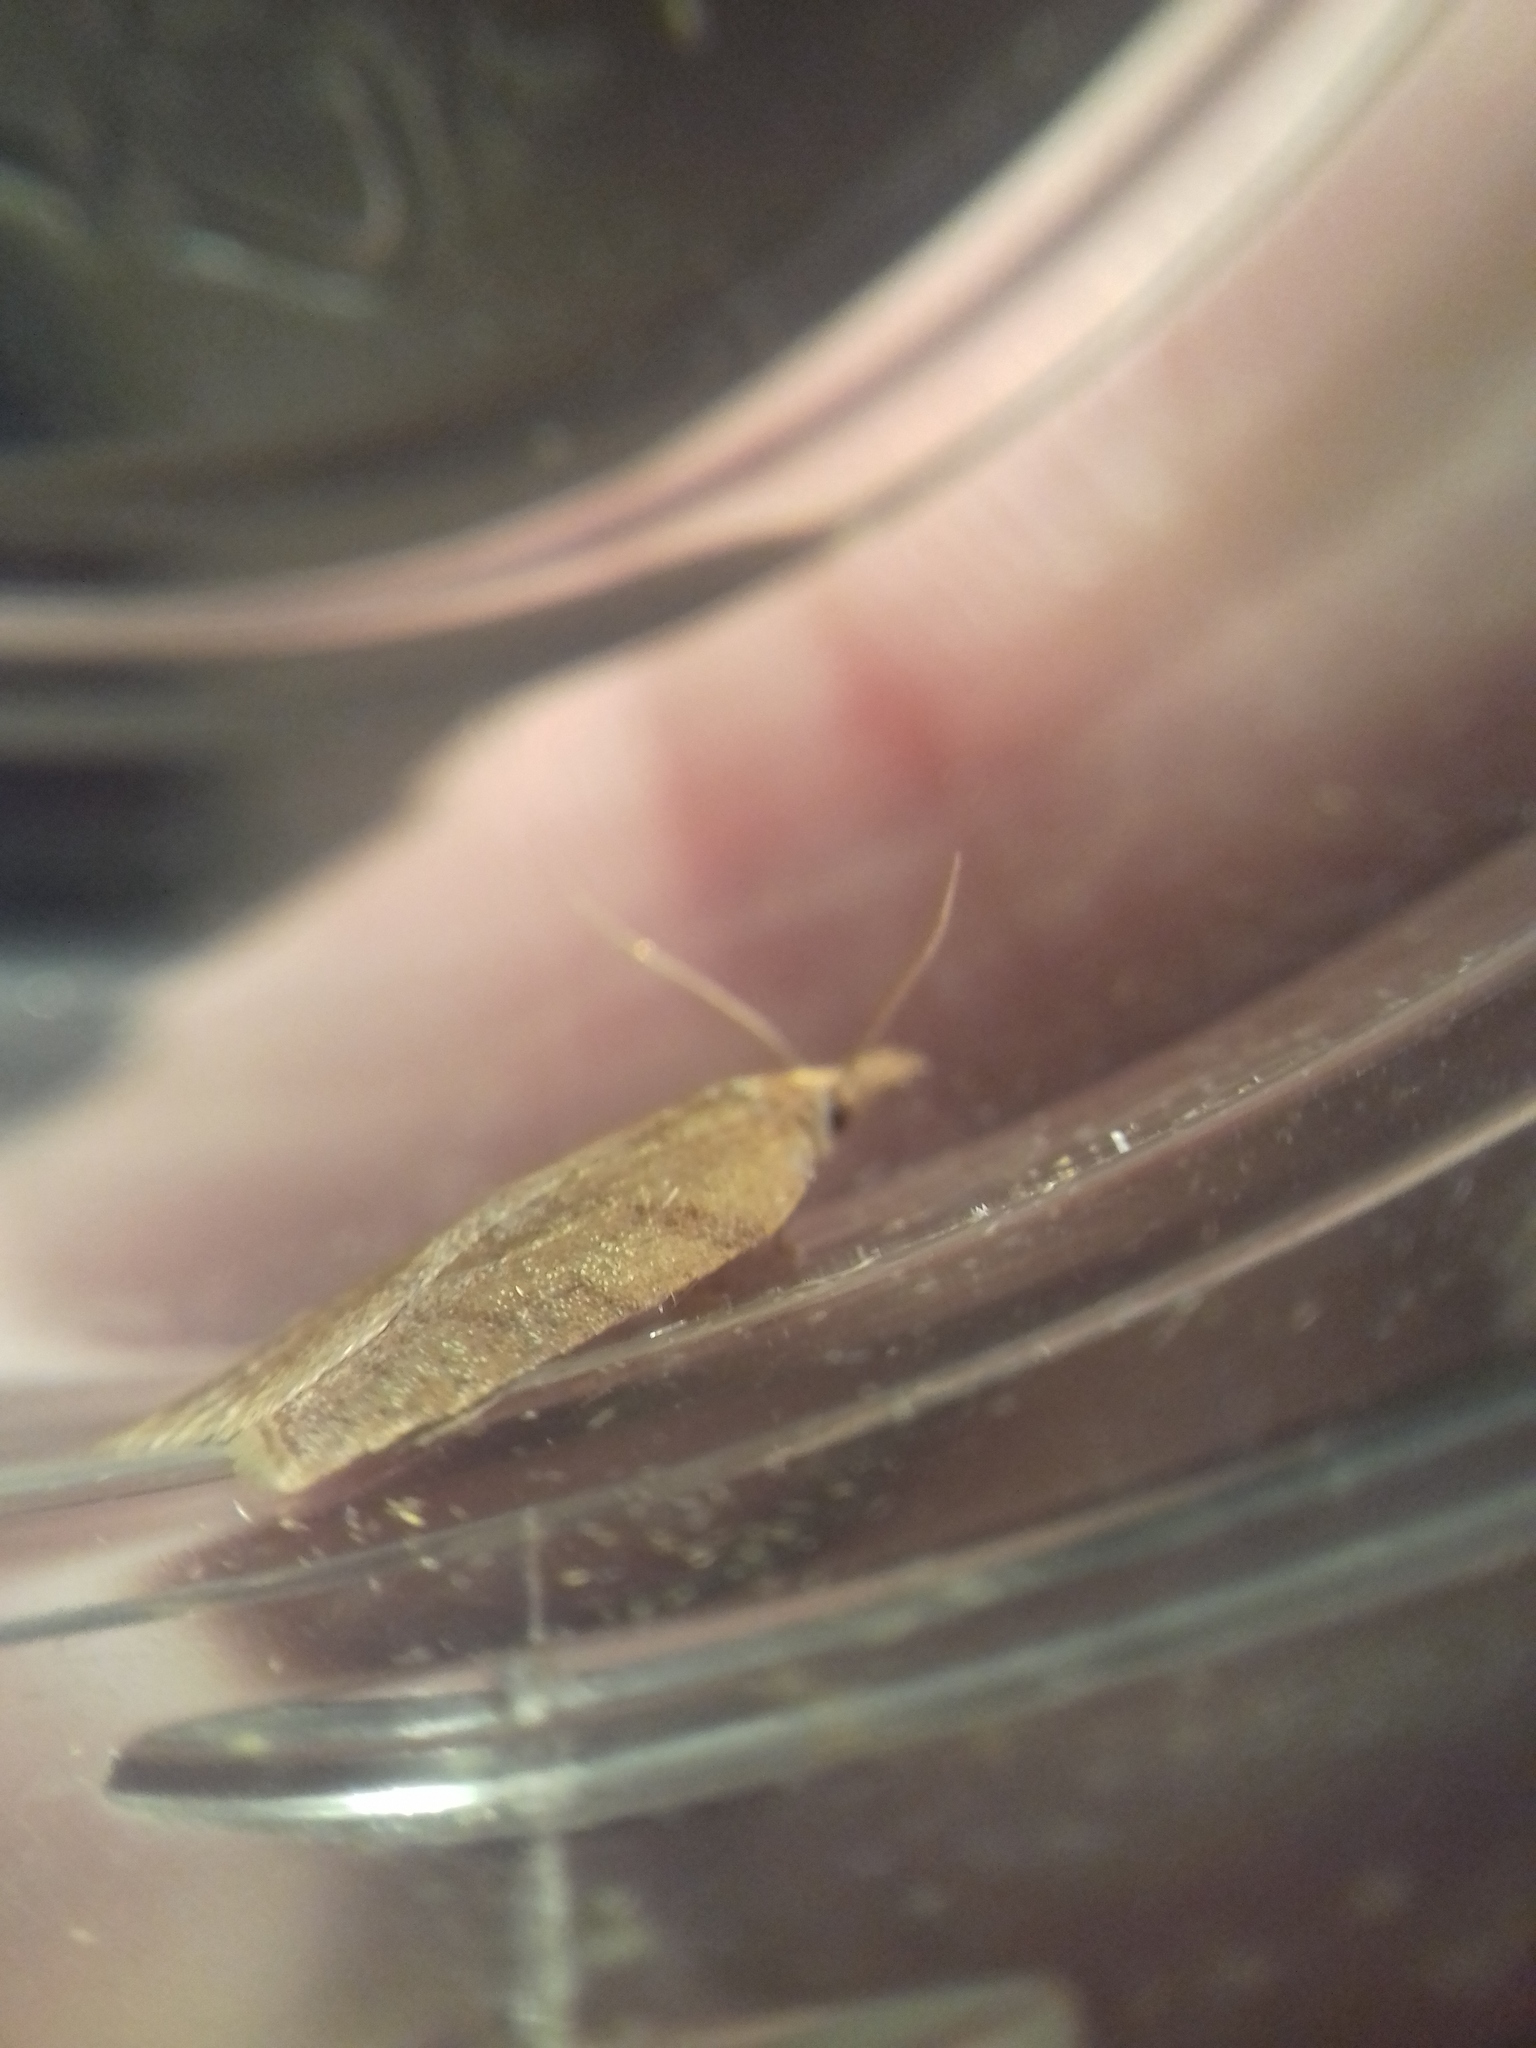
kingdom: Animalia
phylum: Arthropoda
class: Insecta
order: Lepidoptera
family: Tortricidae
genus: Sparganothis
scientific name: Sparganothis pilleriana
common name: Vine leaf-roller tortrix, long-nosed twist
